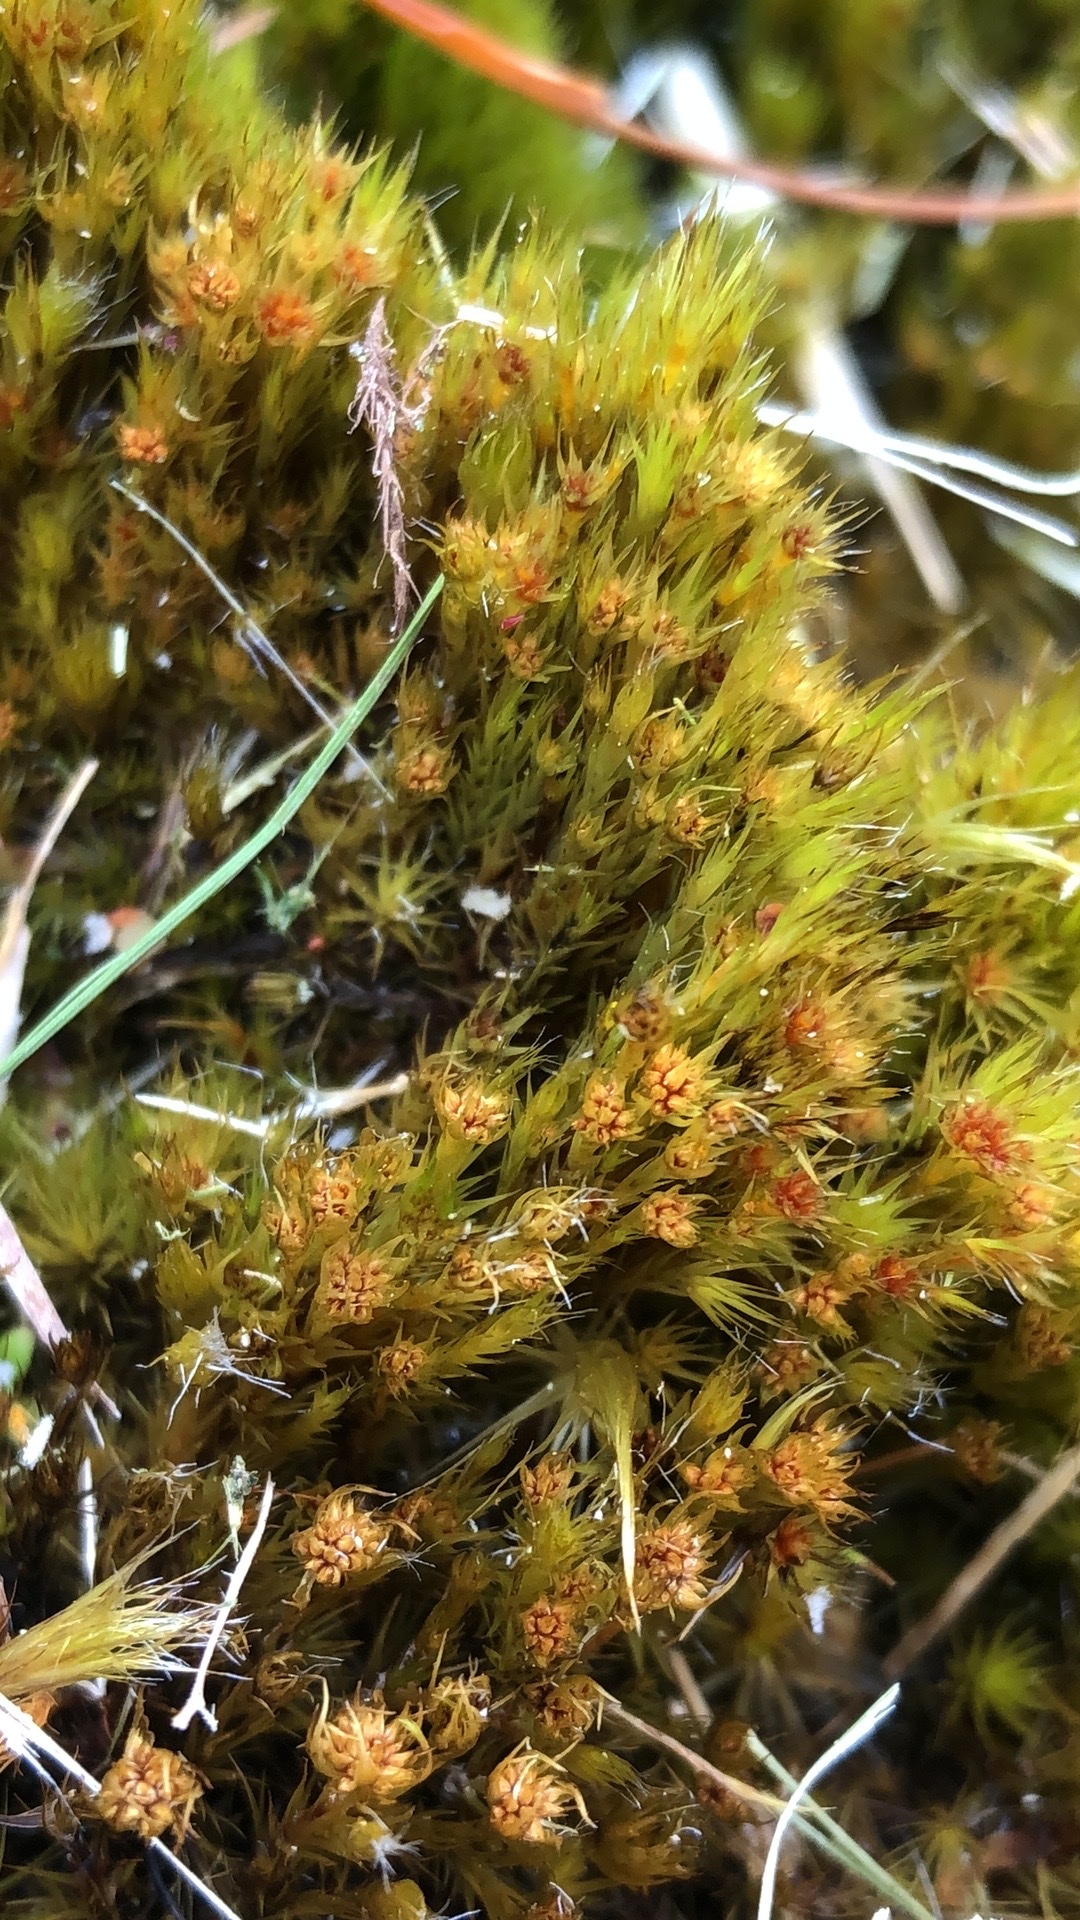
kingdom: Plantae
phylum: Bryophyta
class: Bryopsida
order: Dicranales
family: Leucobryaceae
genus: Campylopus
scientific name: Campylopus introflexus
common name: Heath star moss
